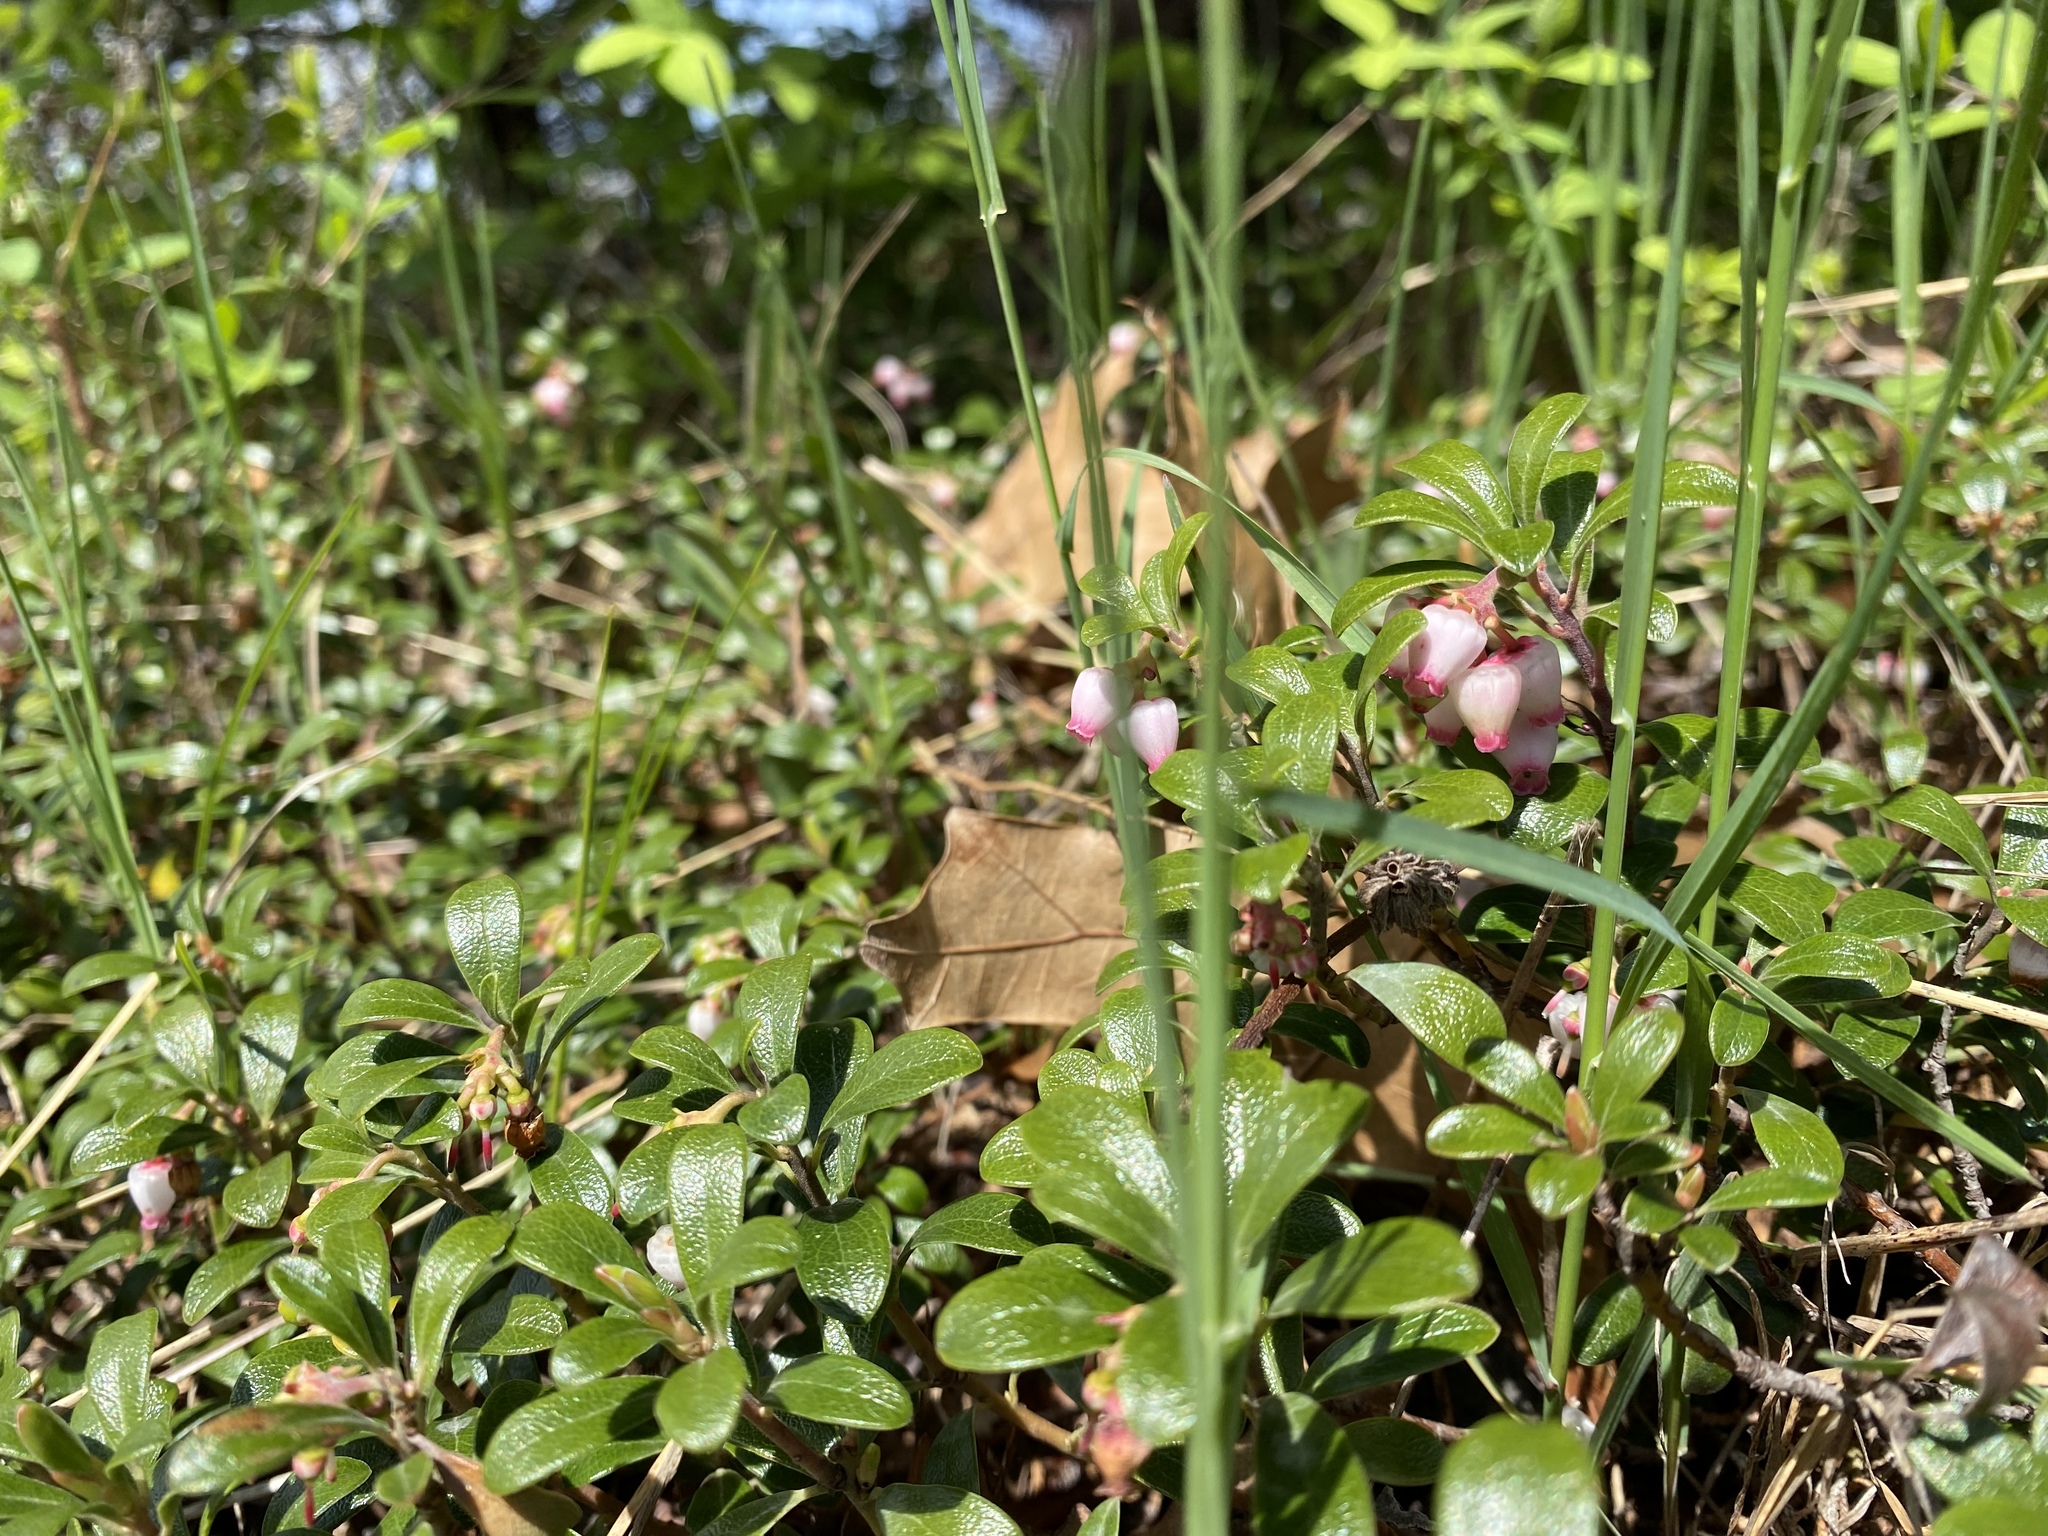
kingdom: Plantae
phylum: Tracheophyta
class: Magnoliopsida
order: Ericales
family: Ericaceae
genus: Arctostaphylos
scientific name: Arctostaphylos uva-ursi
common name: Bearberry
